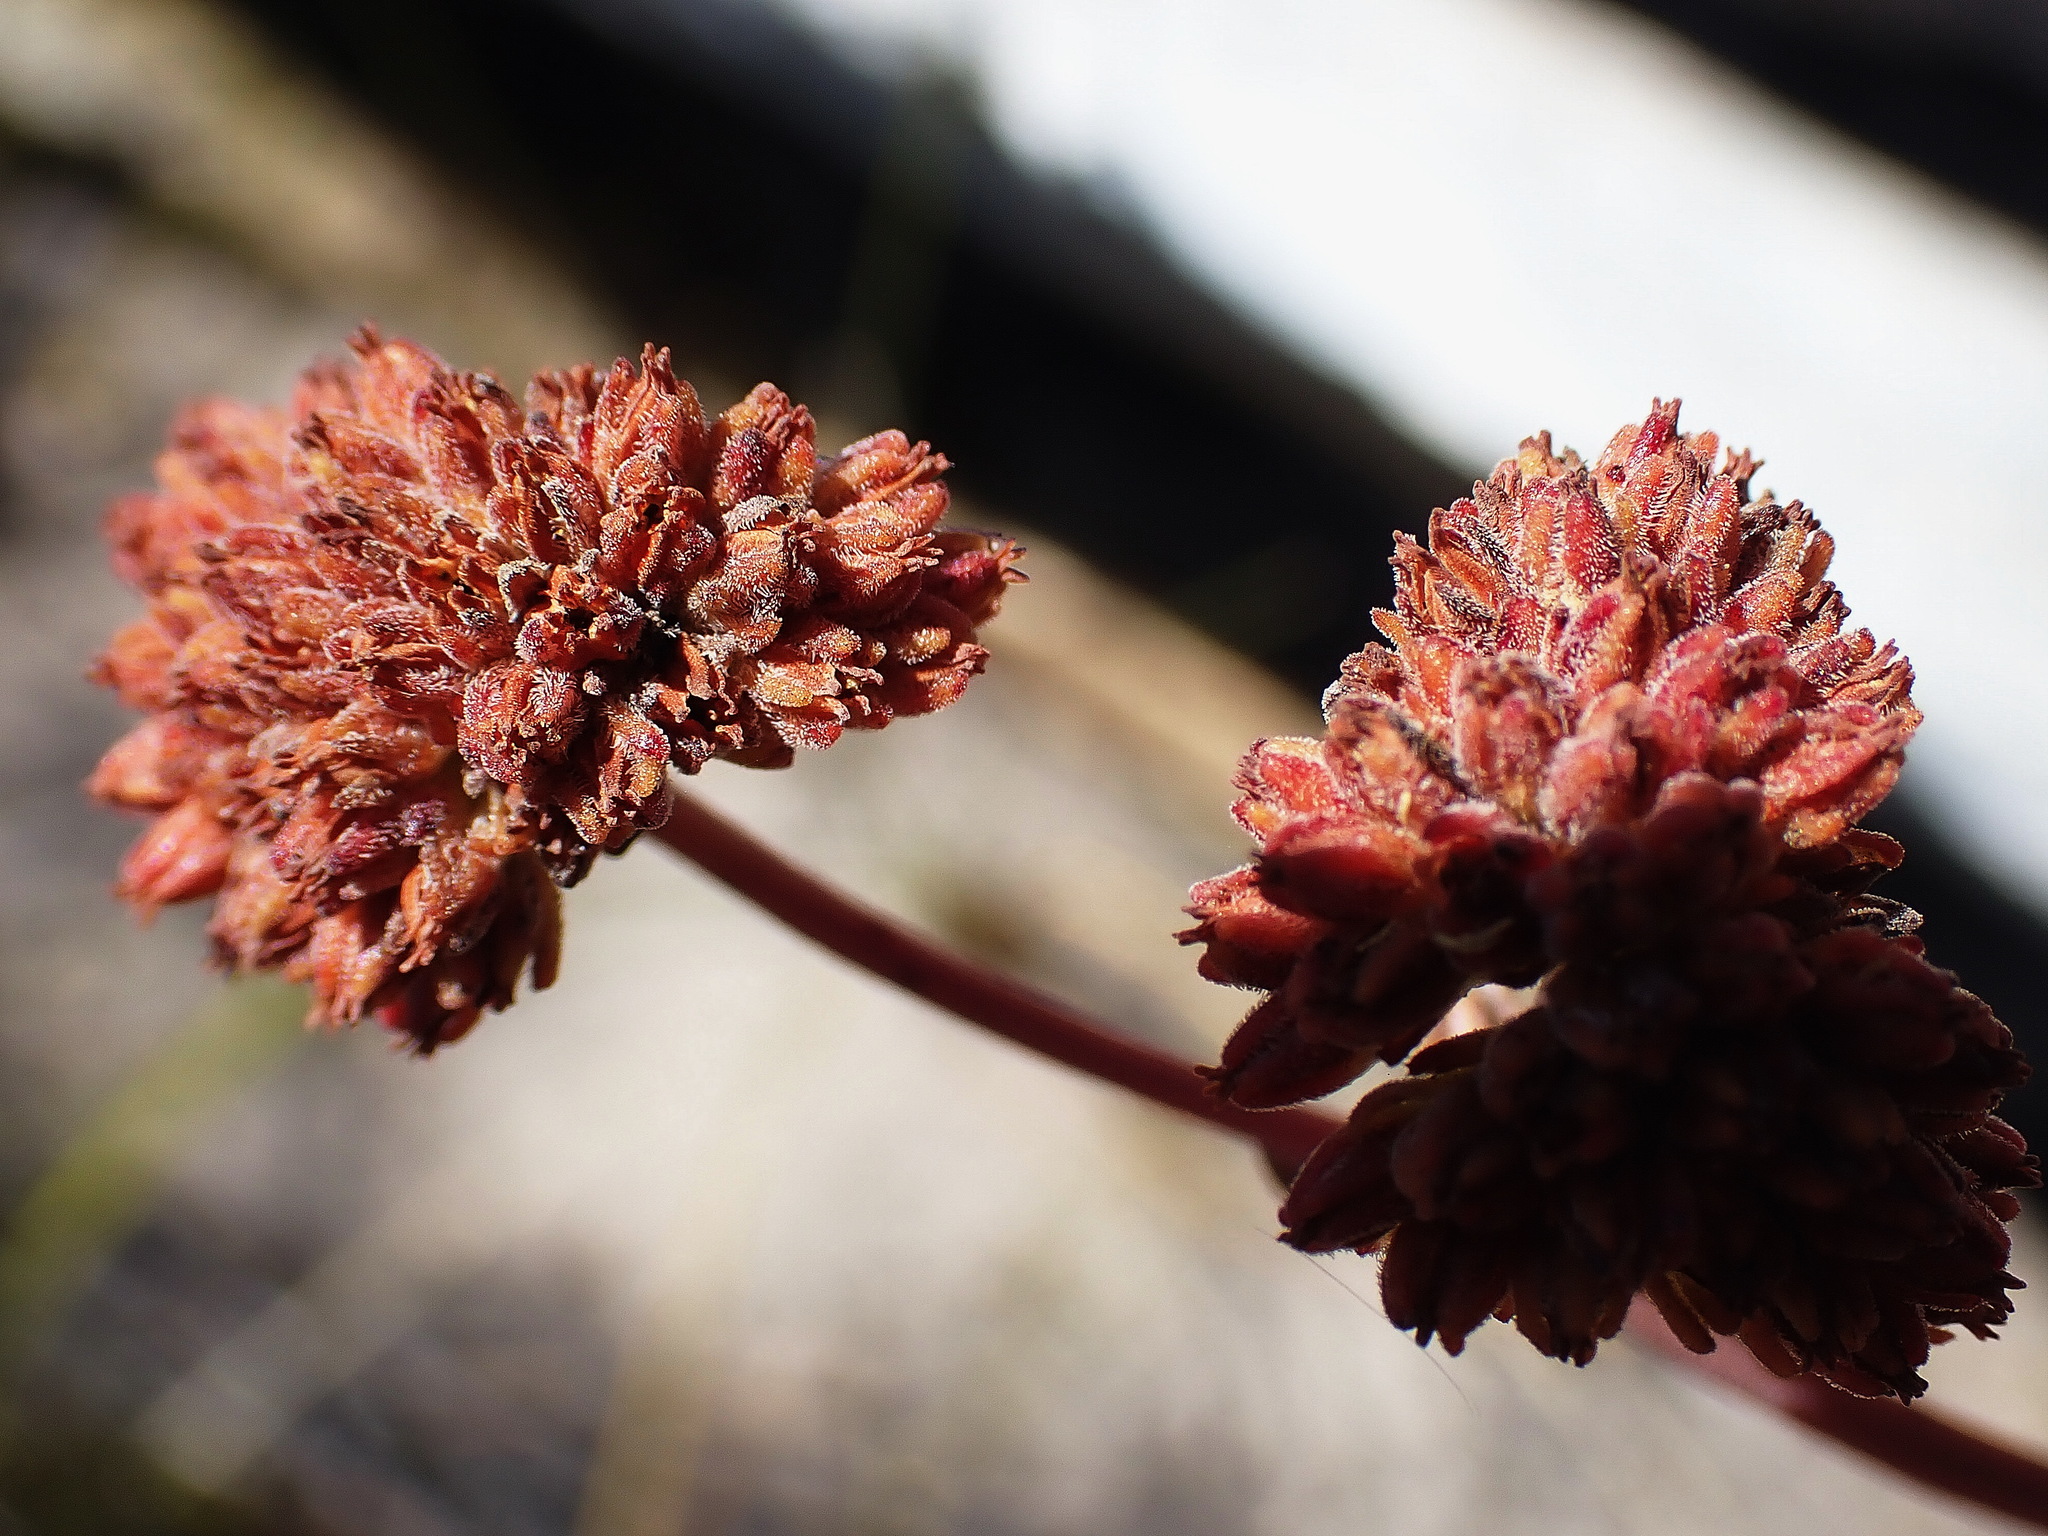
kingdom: Plantae
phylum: Tracheophyta
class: Magnoliopsida
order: Saxifragales
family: Crassulaceae
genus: Crassula
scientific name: Crassula atropurpurea
